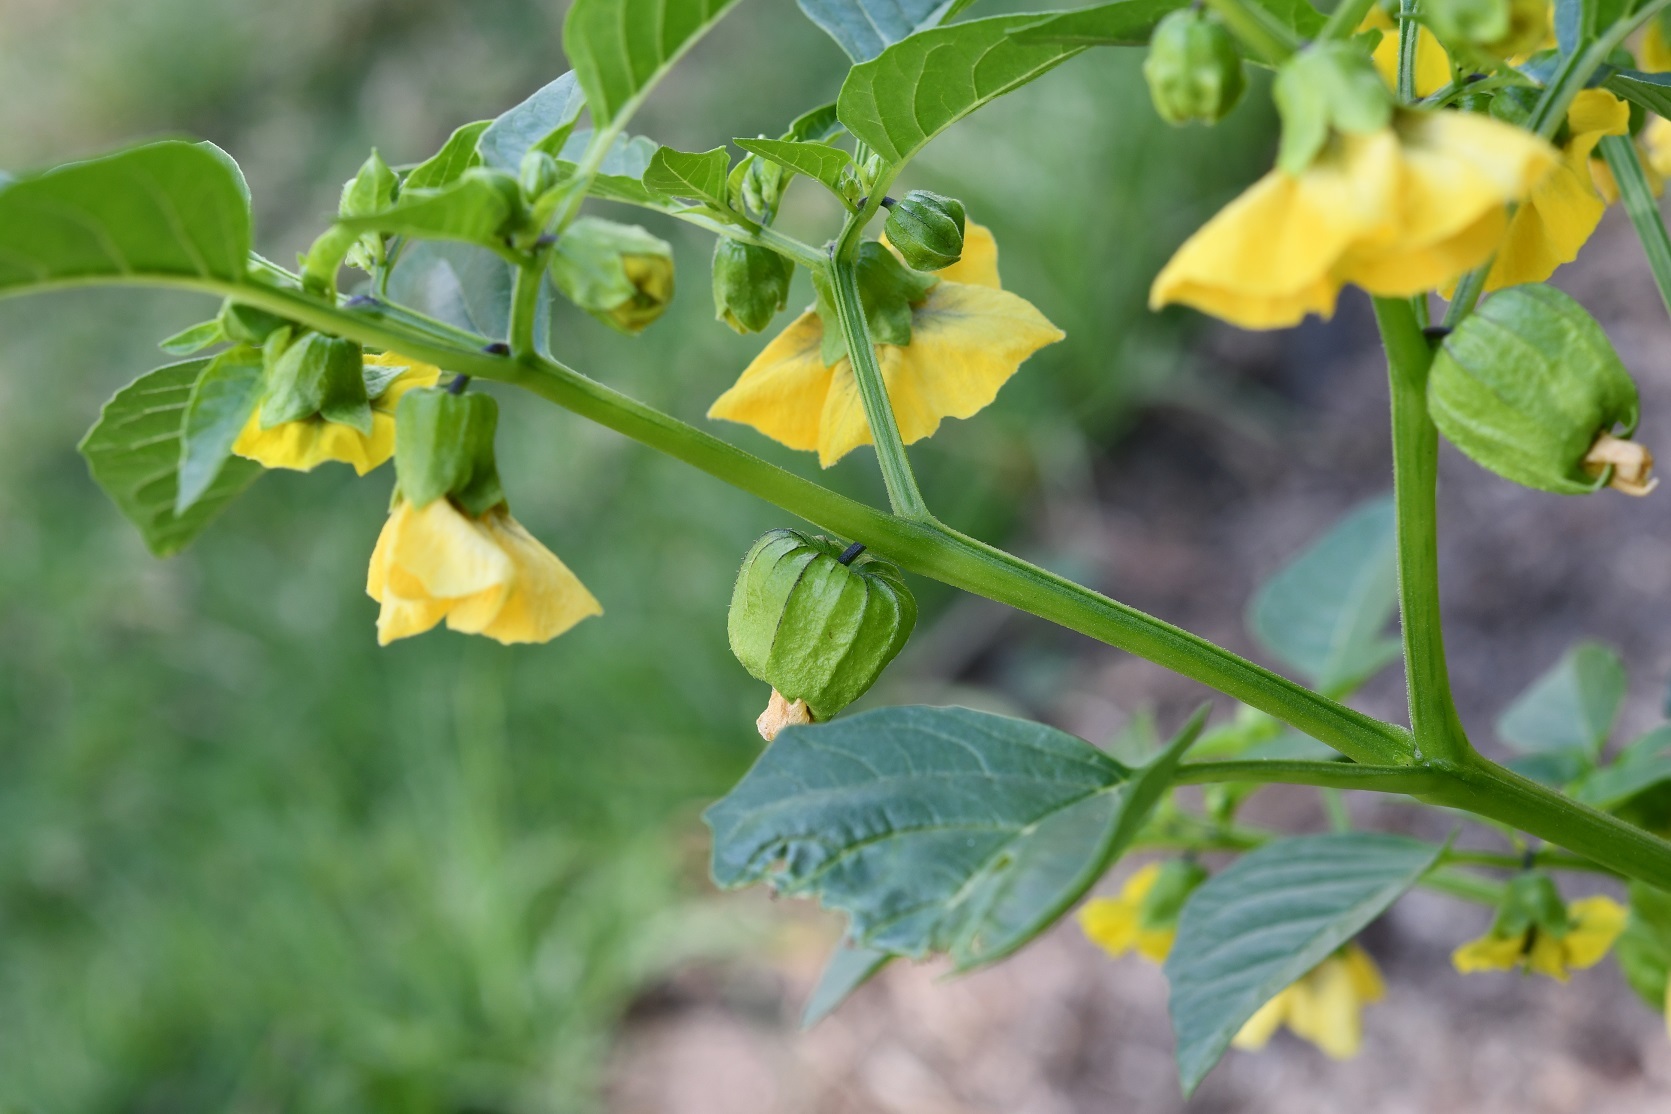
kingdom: Plantae
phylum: Tracheophyta
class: Magnoliopsida
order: Solanales
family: Solanaceae
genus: Physalis
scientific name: Physalis philadelphica
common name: Husk-tomato
